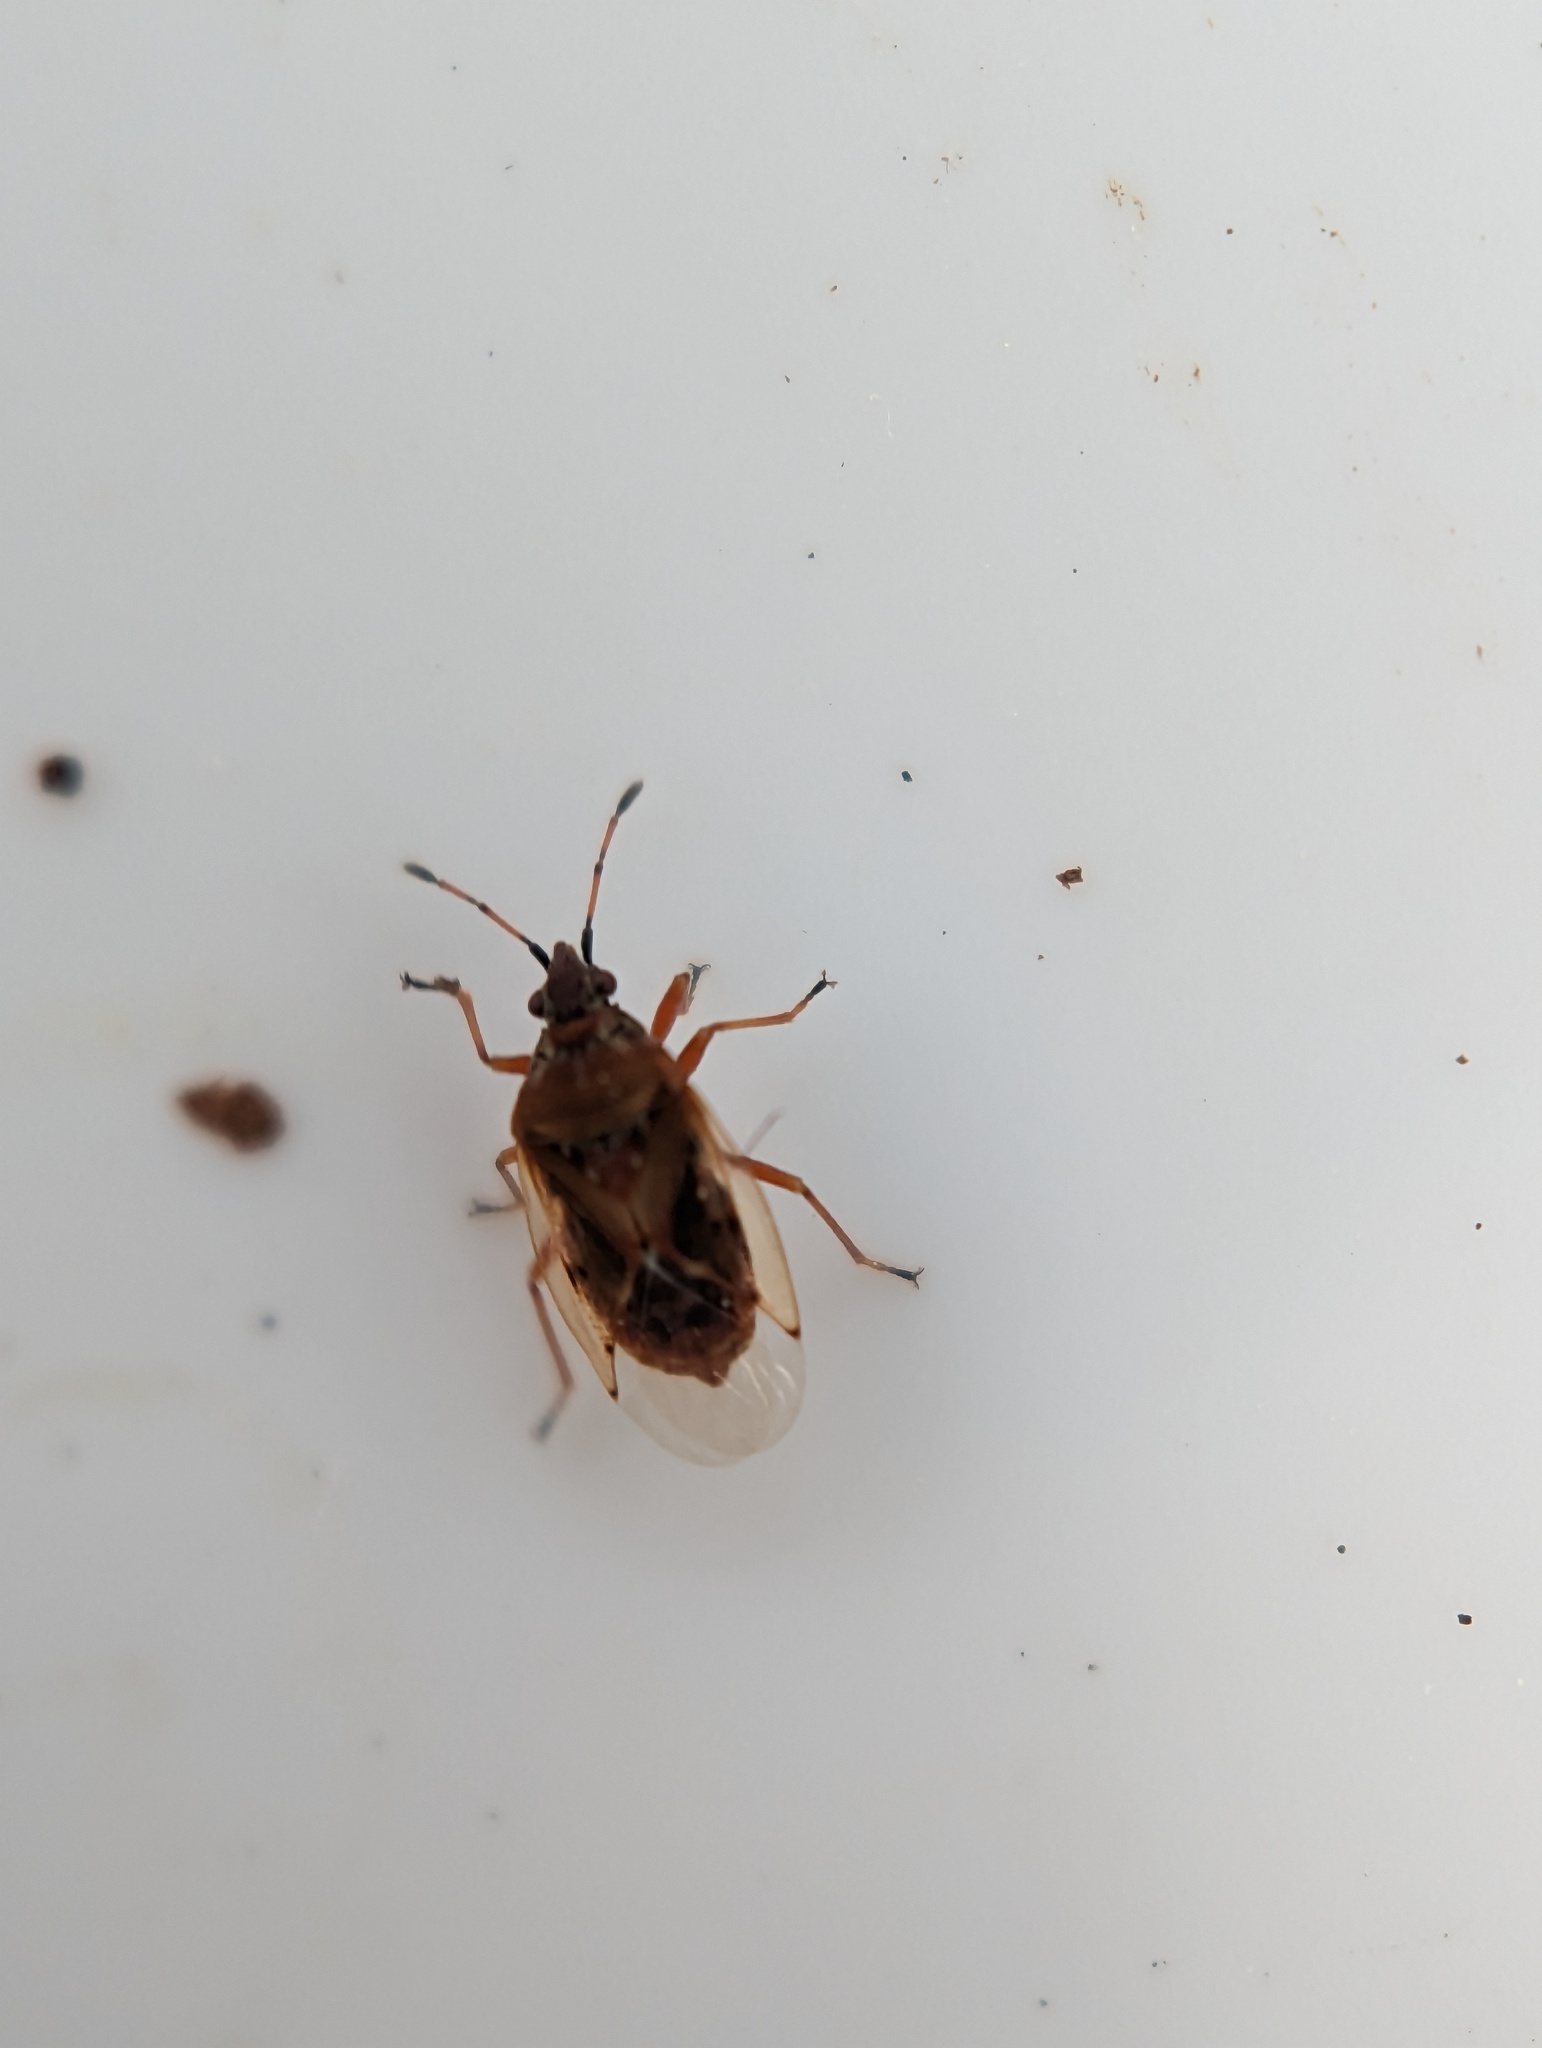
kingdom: Animalia
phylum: Arthropoda
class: Insecta
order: Hemiptera
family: Lygaeidae
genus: Kleidocerys
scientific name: Kleidocerys resedae
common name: Birch catkin bug
